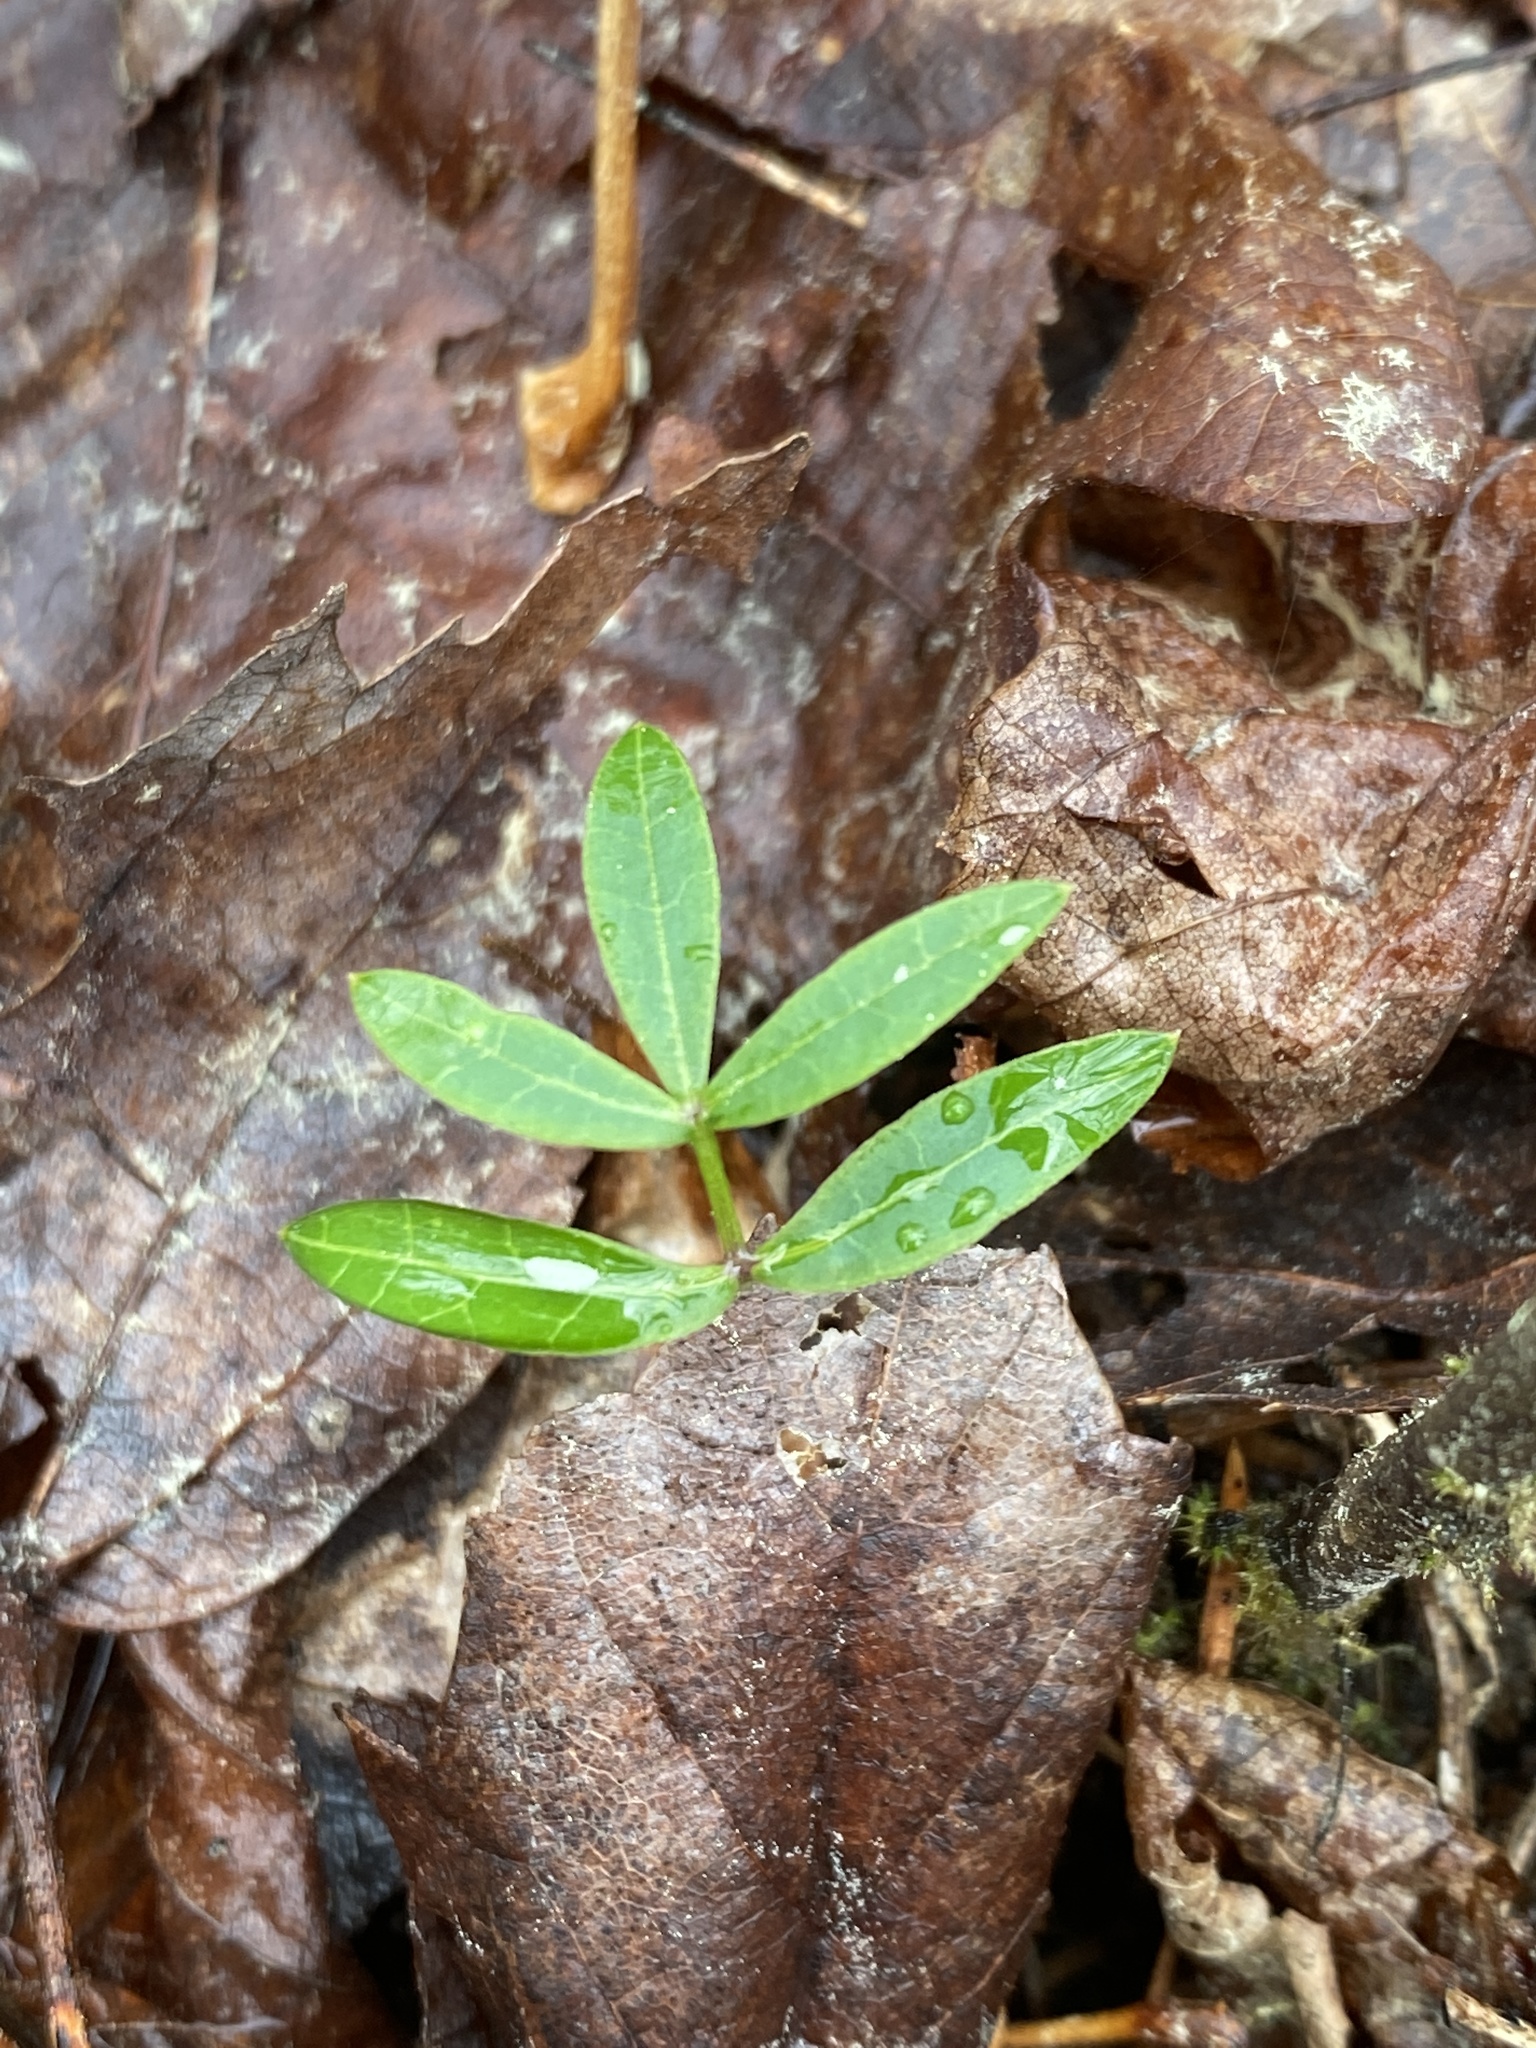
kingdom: Plantae
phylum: Tracheophyta
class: Magnoliopsida
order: Apiales
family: Apiaceae
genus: Oxypolis
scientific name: Oxypolis rigidior
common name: Cowbane
